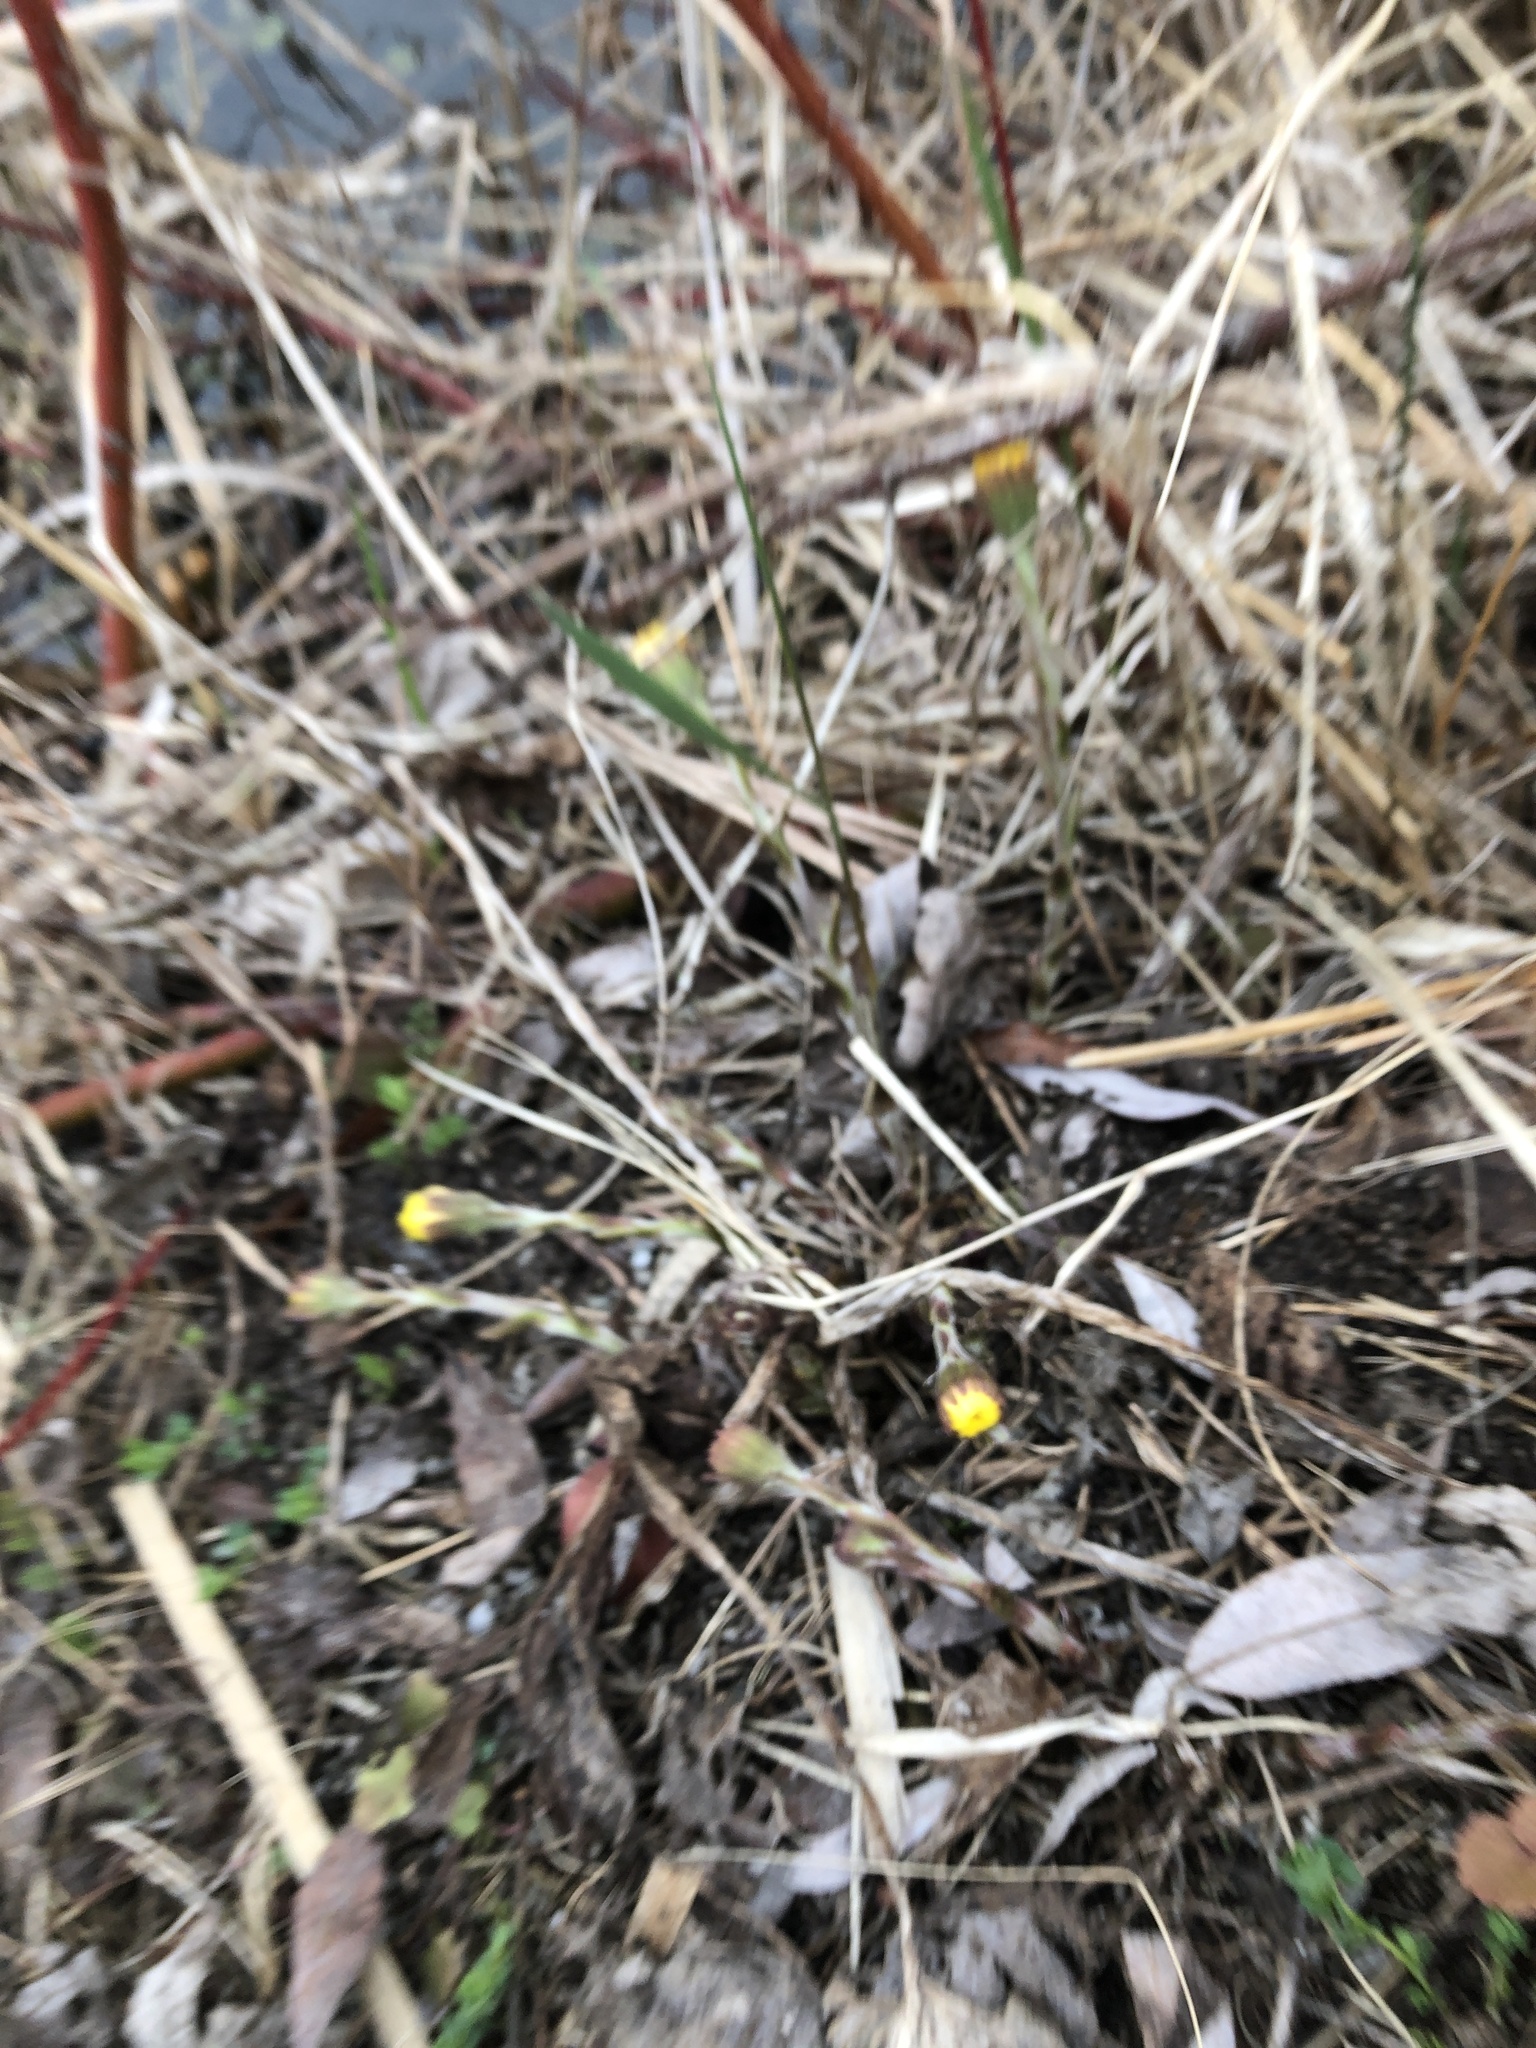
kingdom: Plantae
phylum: Tracheophyta
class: Magnoliopsida
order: Asterales
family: Asteraceae
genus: Tussilago
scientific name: Tussilago farfara
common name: Coltsfoot
